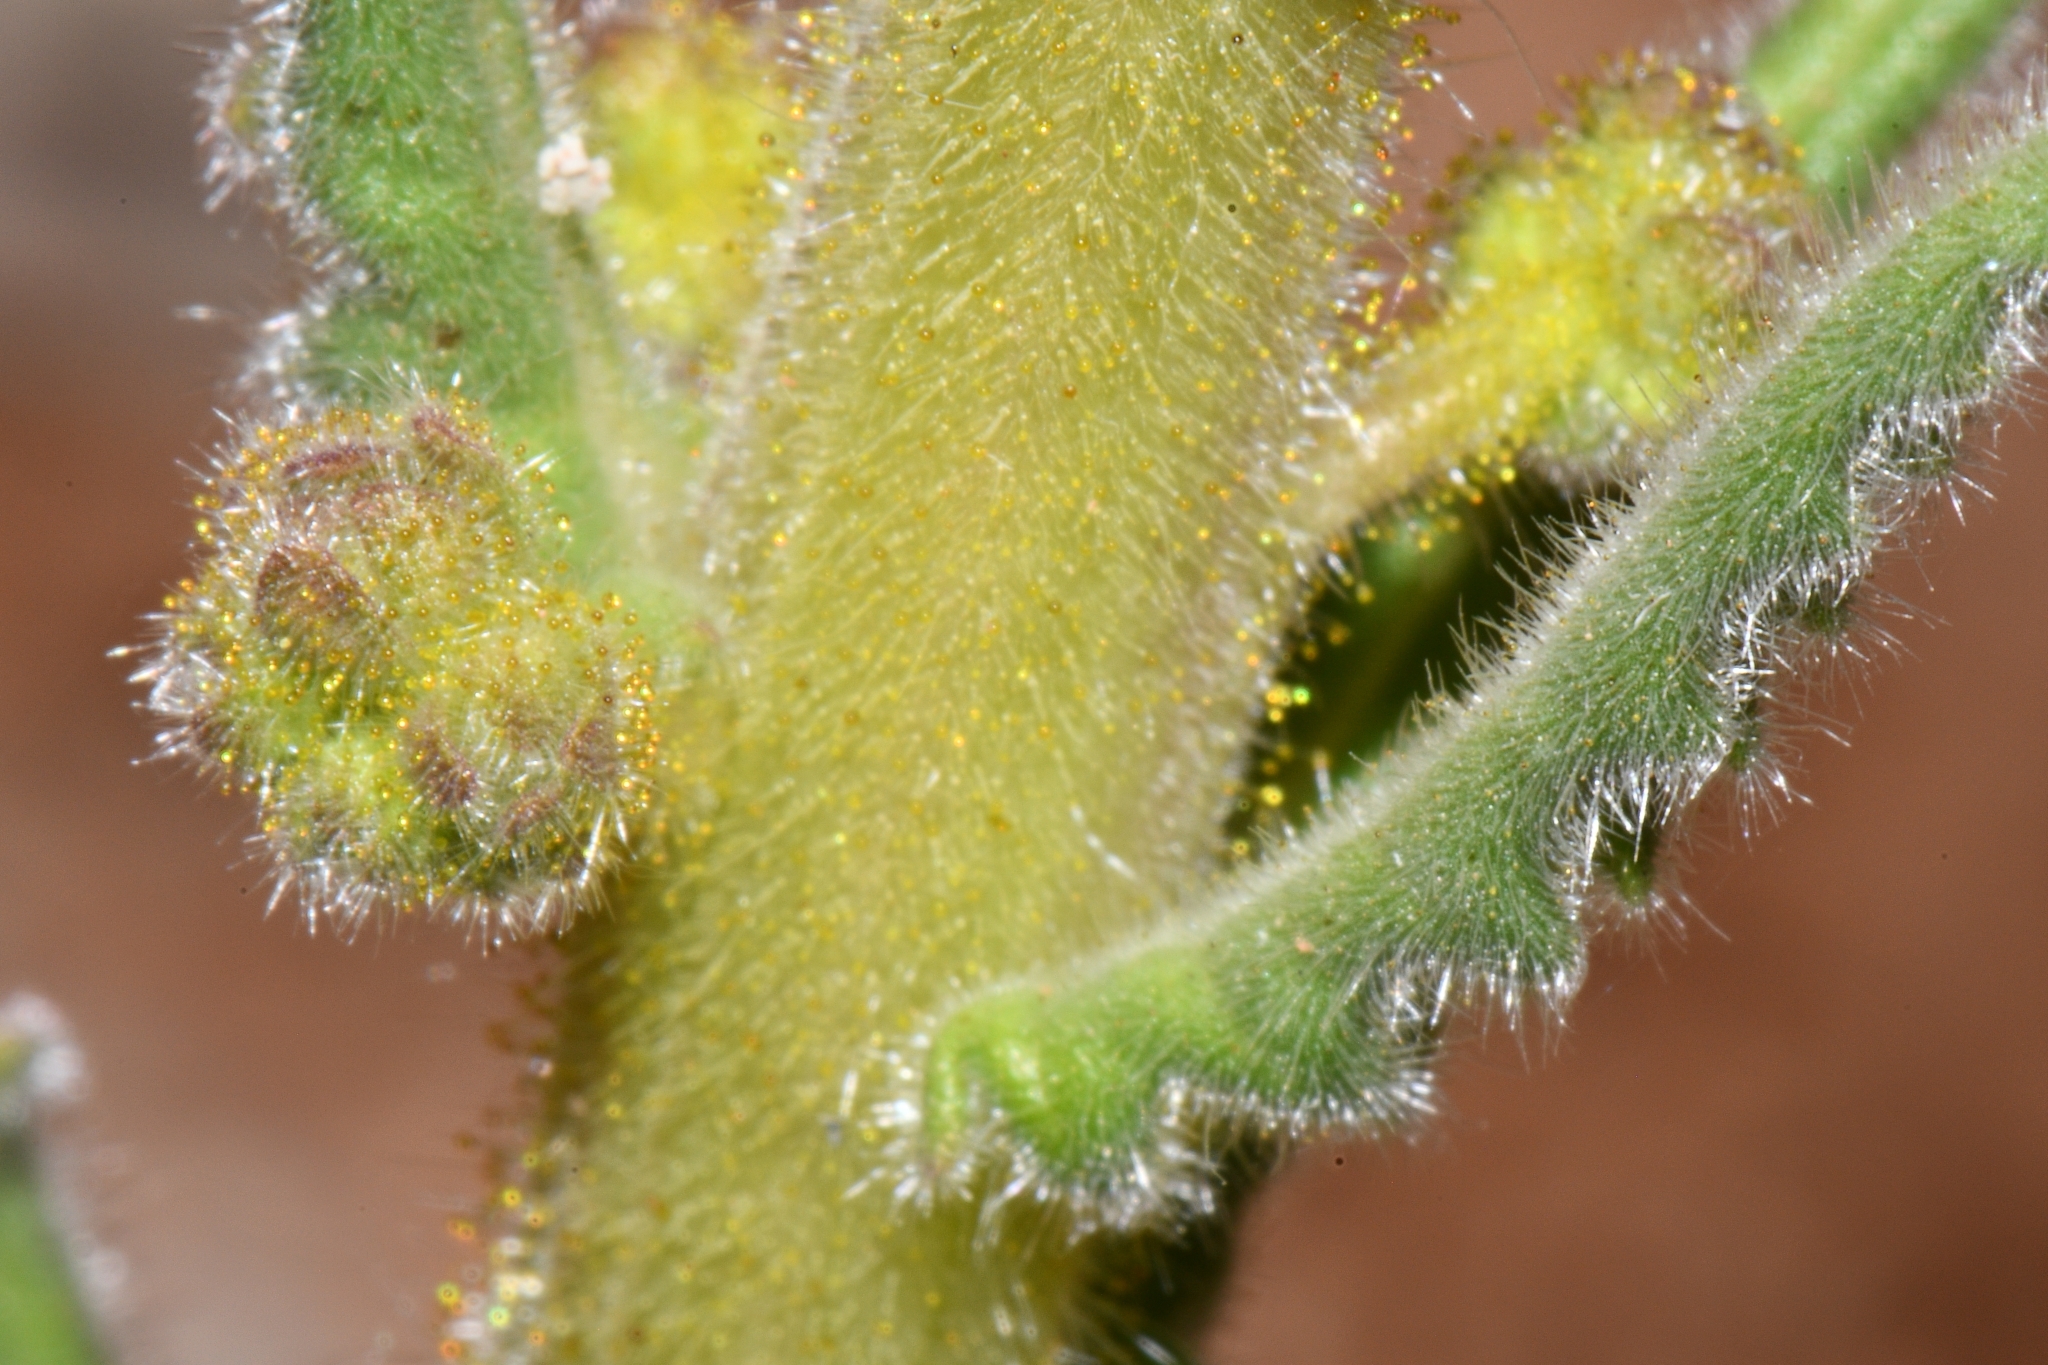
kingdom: Plantae
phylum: Tracheophyta
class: Magnoliopsida
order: Boraginales
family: Hydrophyllaceae
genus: Phacelia
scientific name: Phacelia rafaelensis
